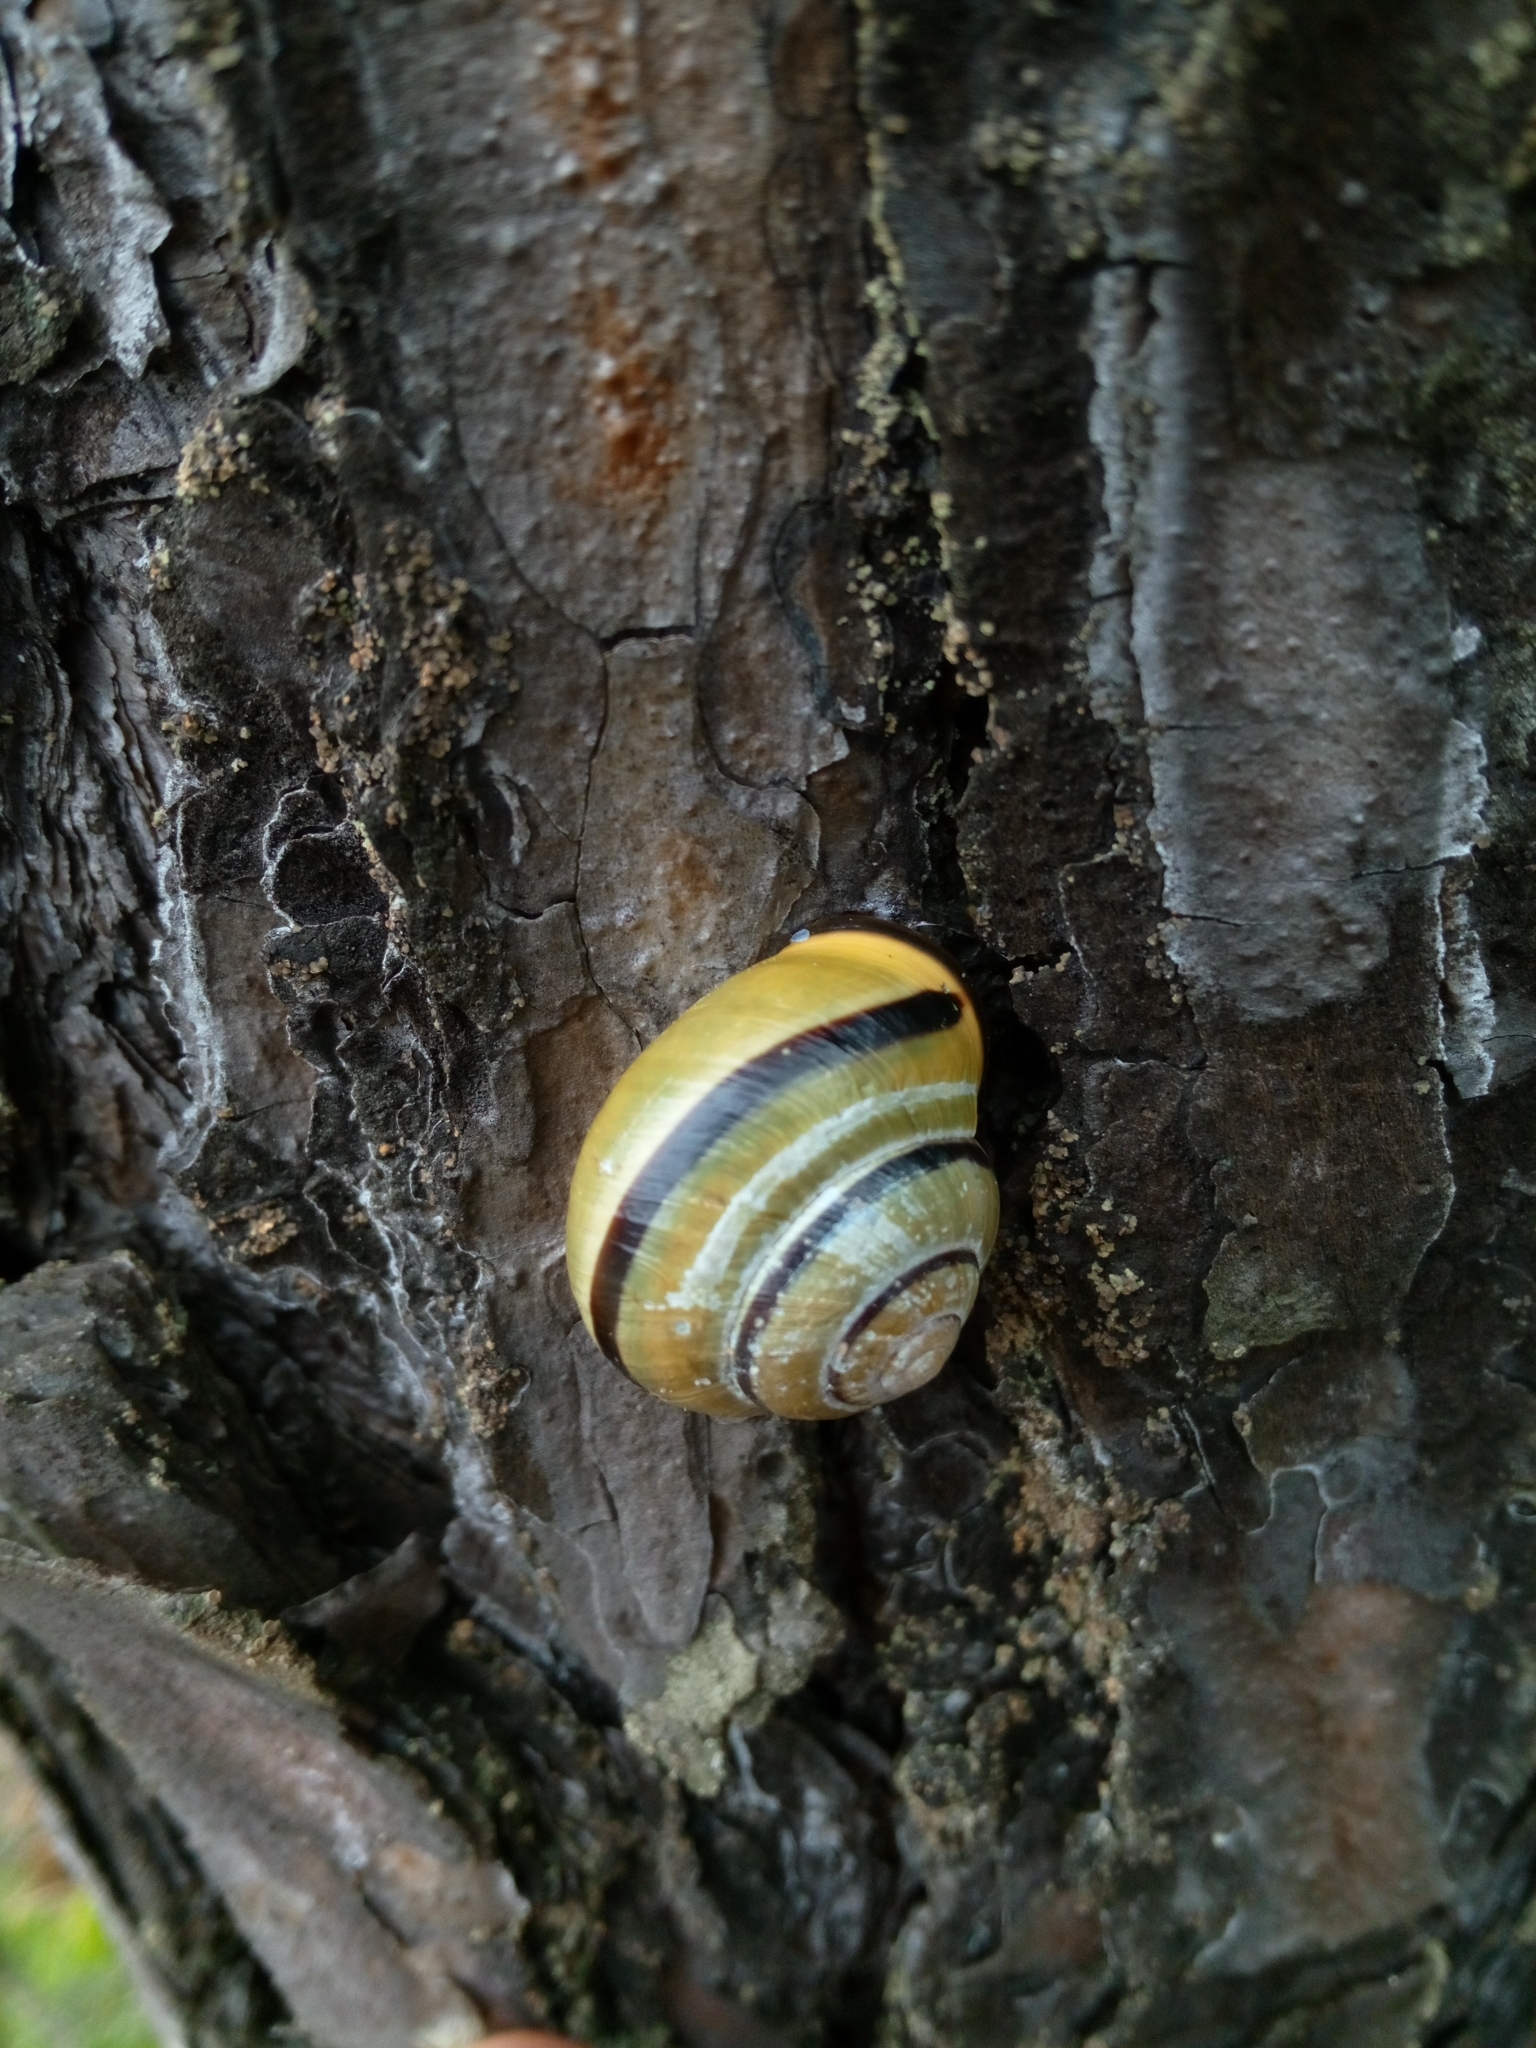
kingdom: Animalia
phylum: Mollusca
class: Gastropoda
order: Stylommatophora
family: Helicidae
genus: Cepaea
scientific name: Cepaea nemoralis
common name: Grovesnail
